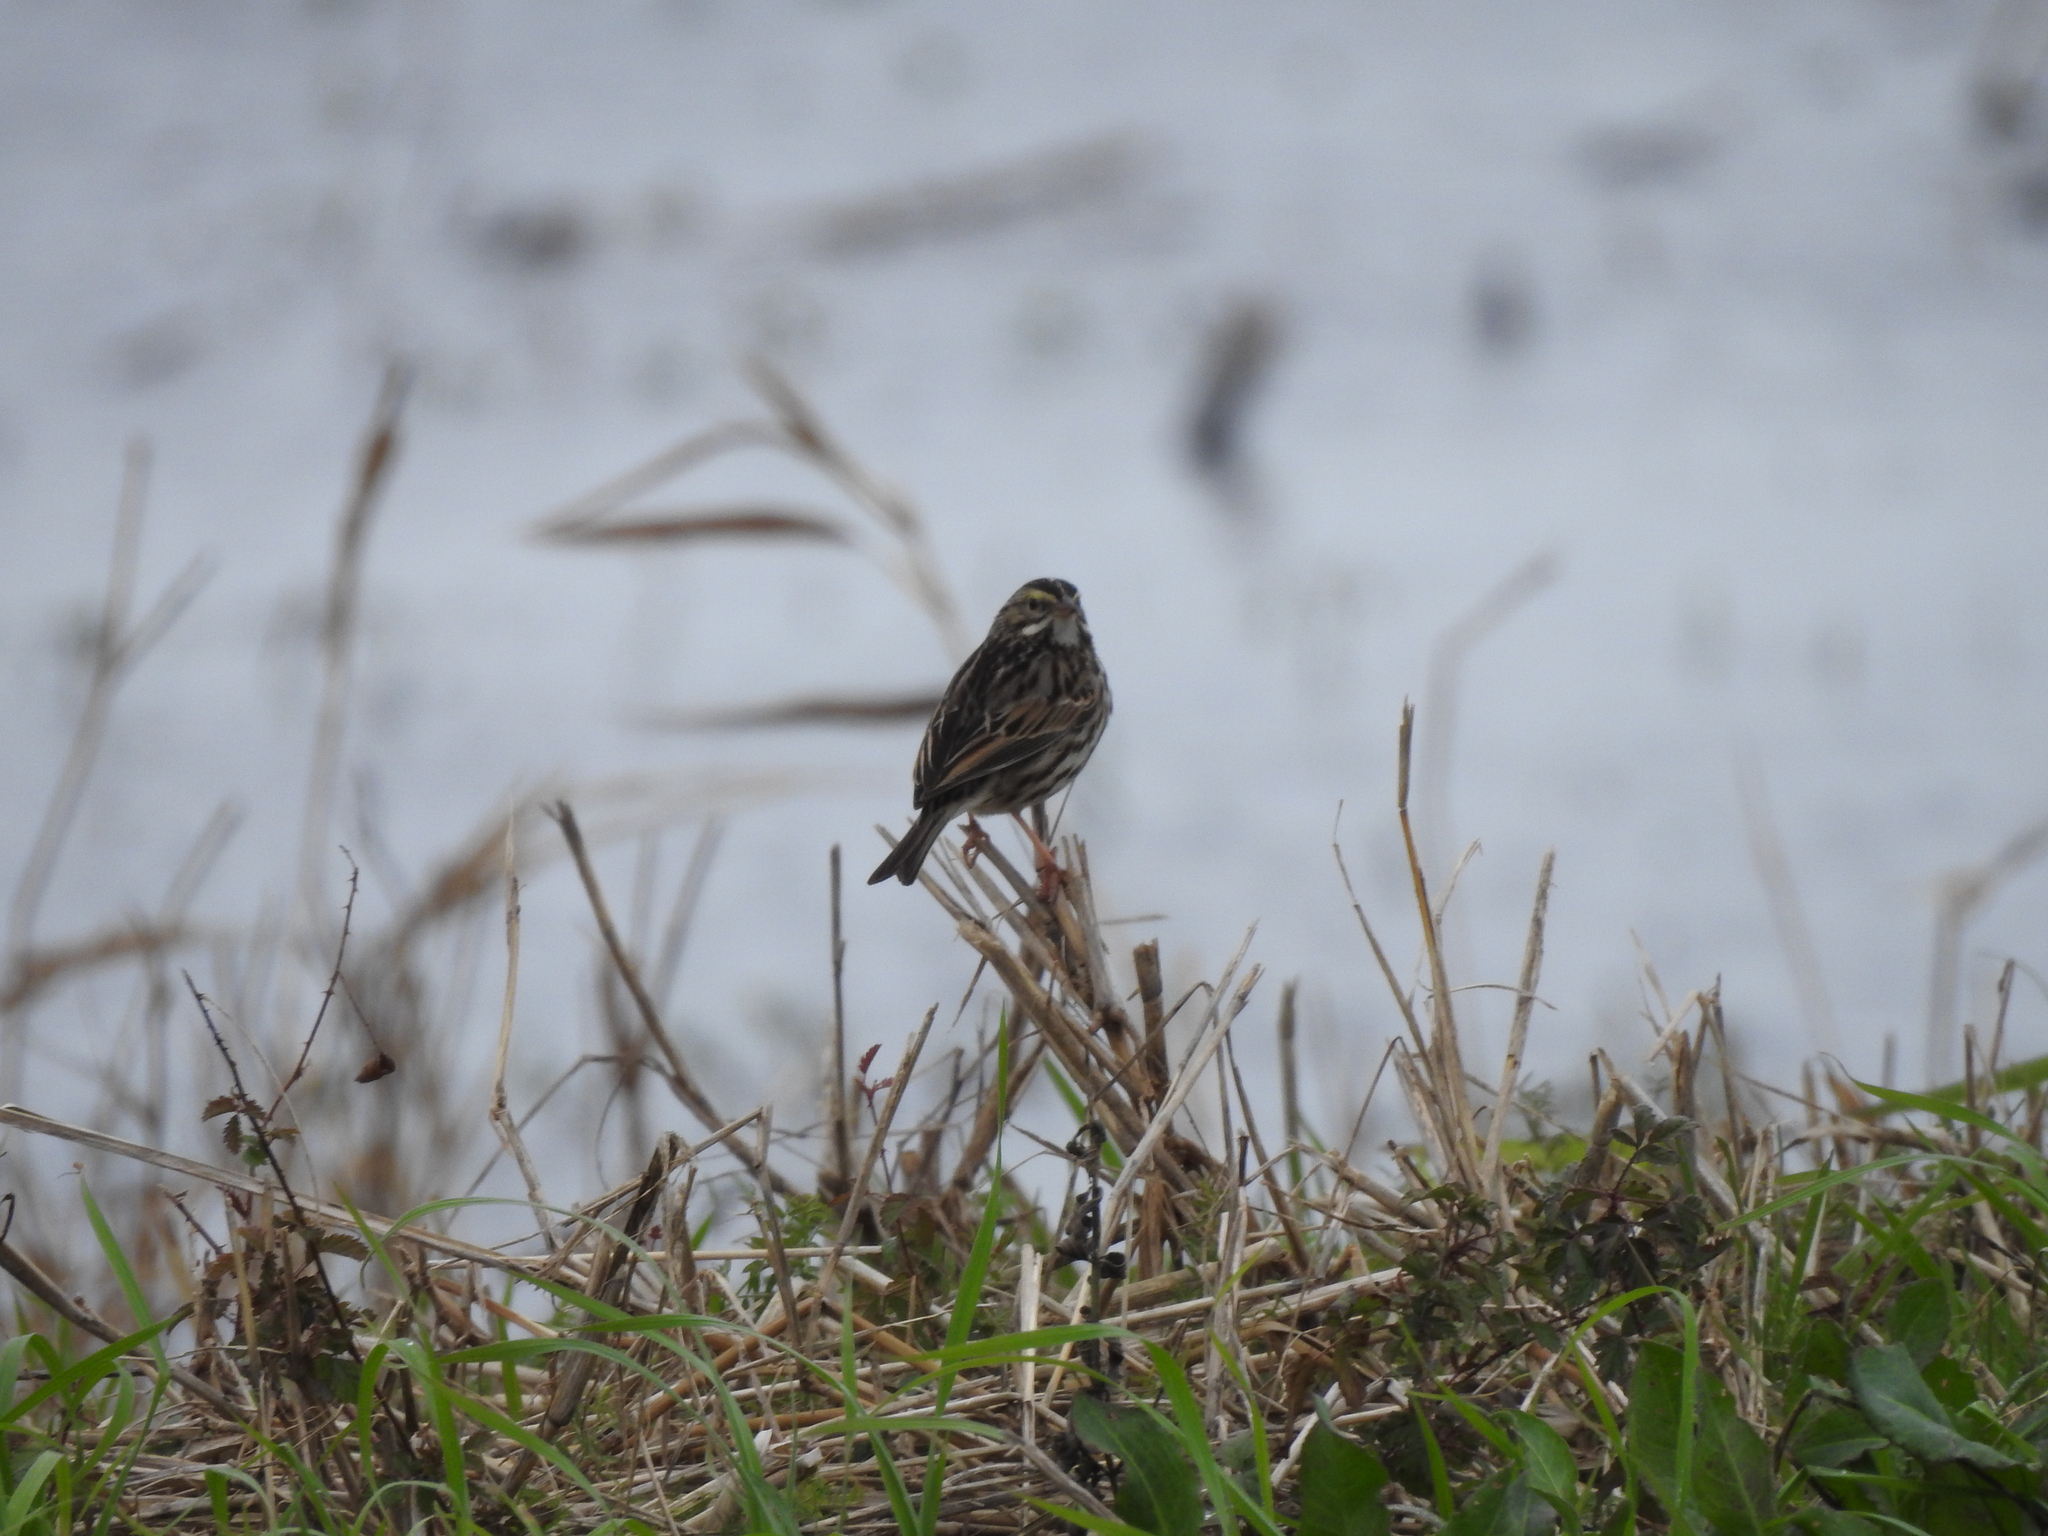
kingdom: Animalia
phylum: Chordata
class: Aves
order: Passeriformes
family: Passerellidae
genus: Passerculus
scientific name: Passerculus sandwichensis
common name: Savannah sparrow
